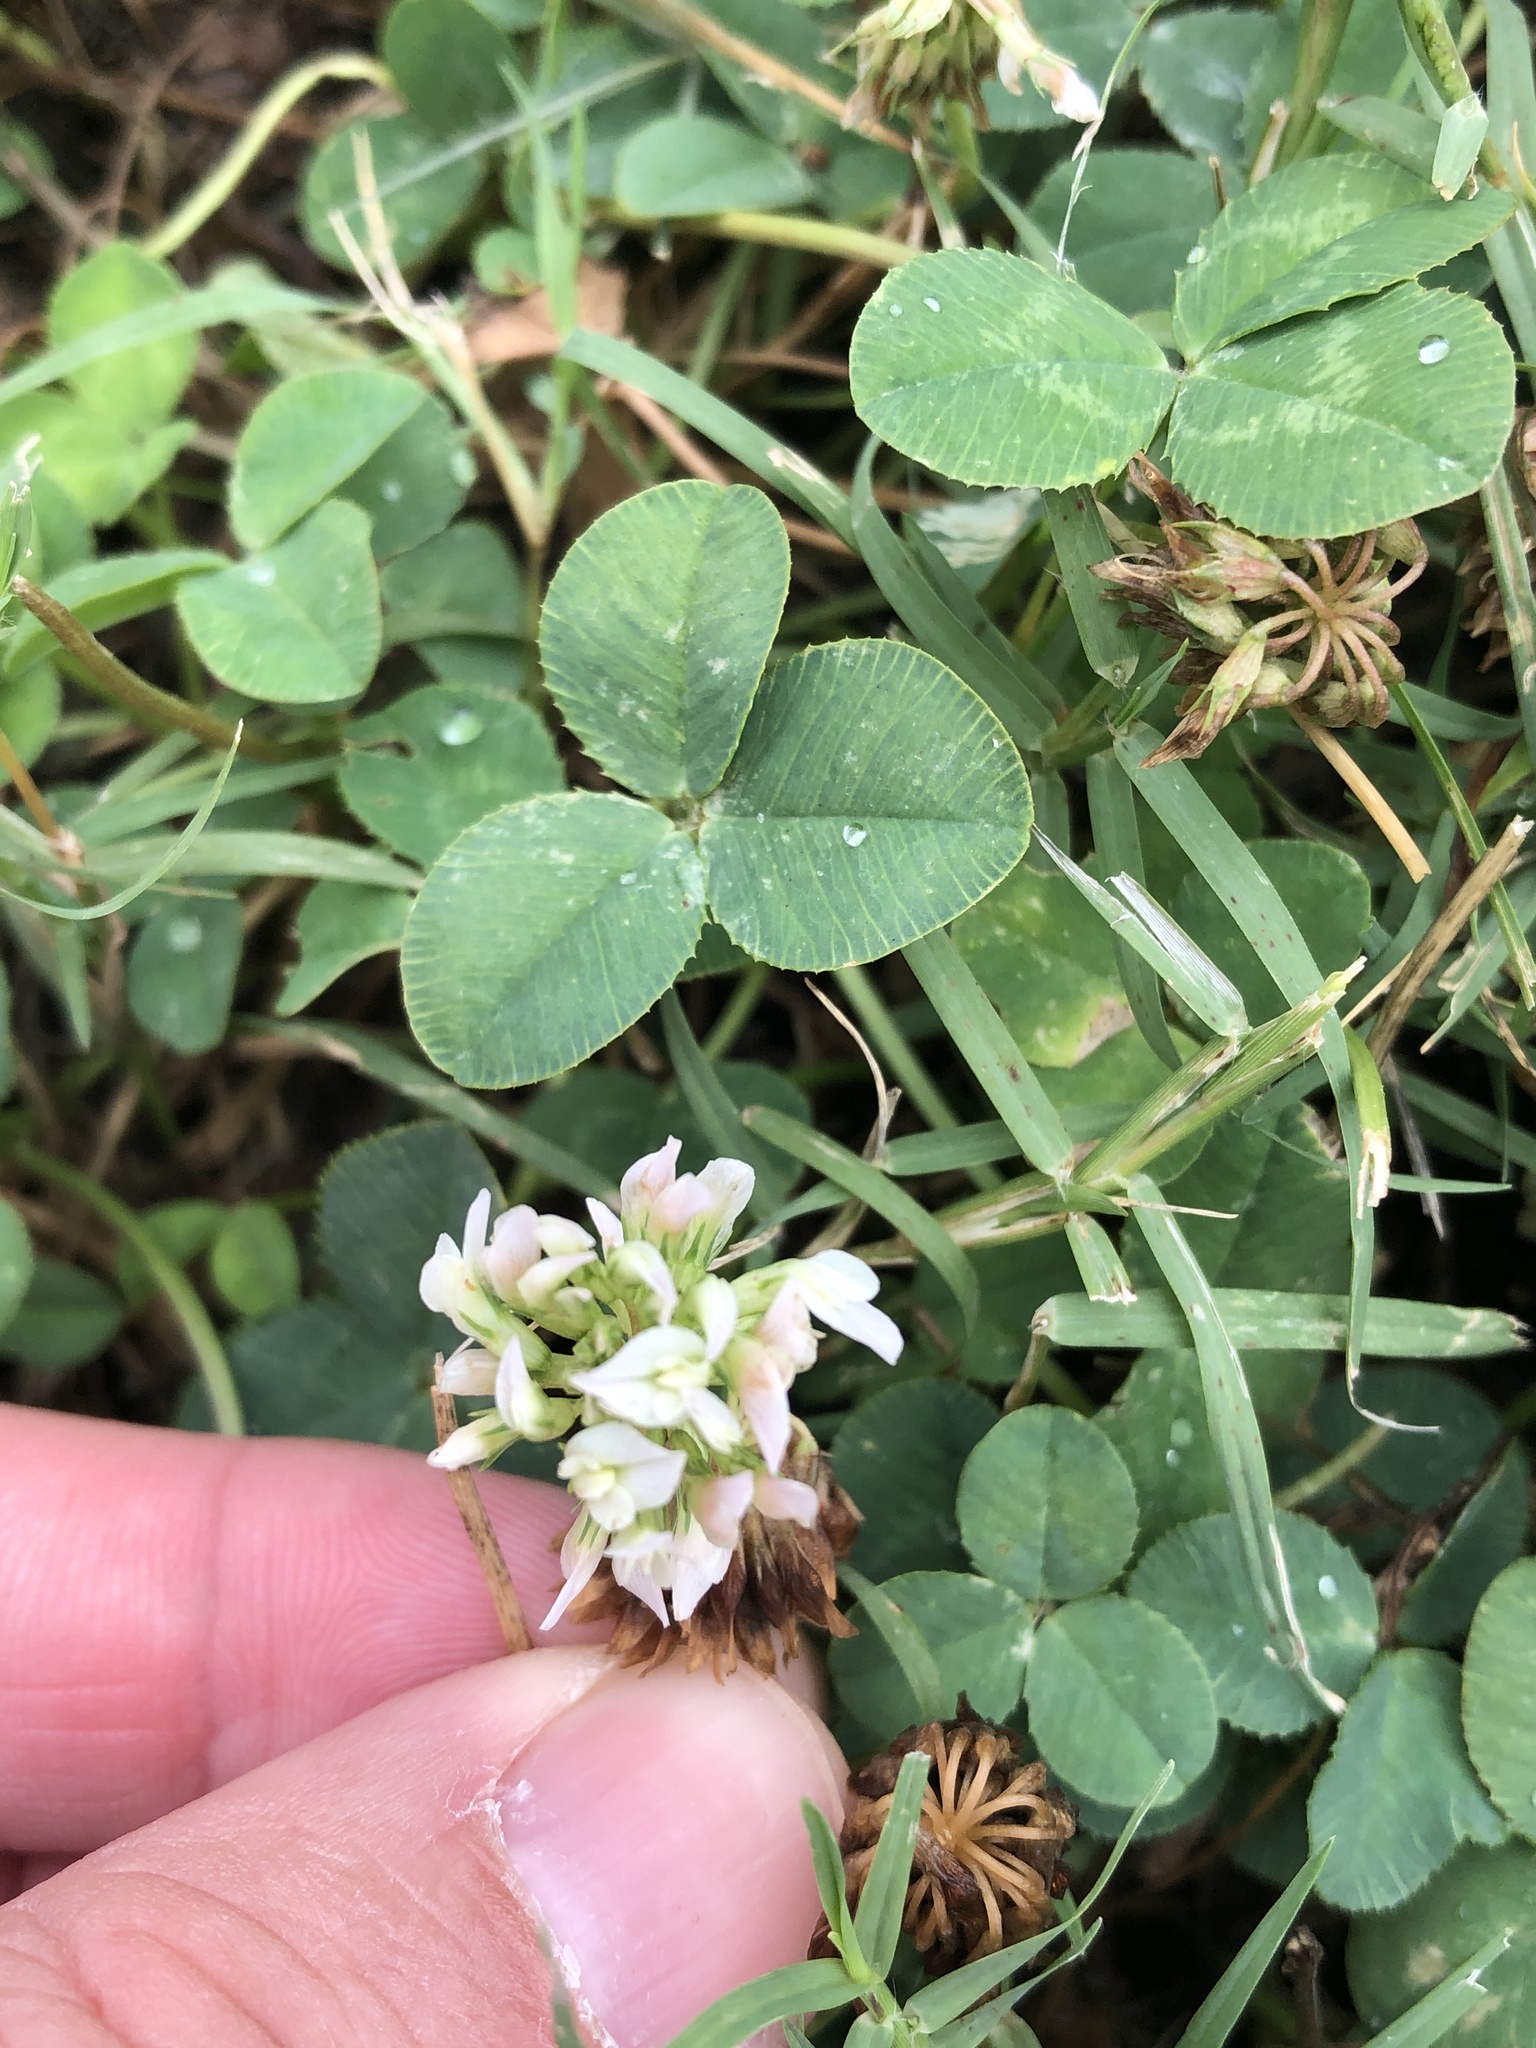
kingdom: Plantae
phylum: Tracheophyta
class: Magnoliopsida
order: Fabales
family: Fabaceae
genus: Trifolium
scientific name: Trifolium repens
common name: White clover
